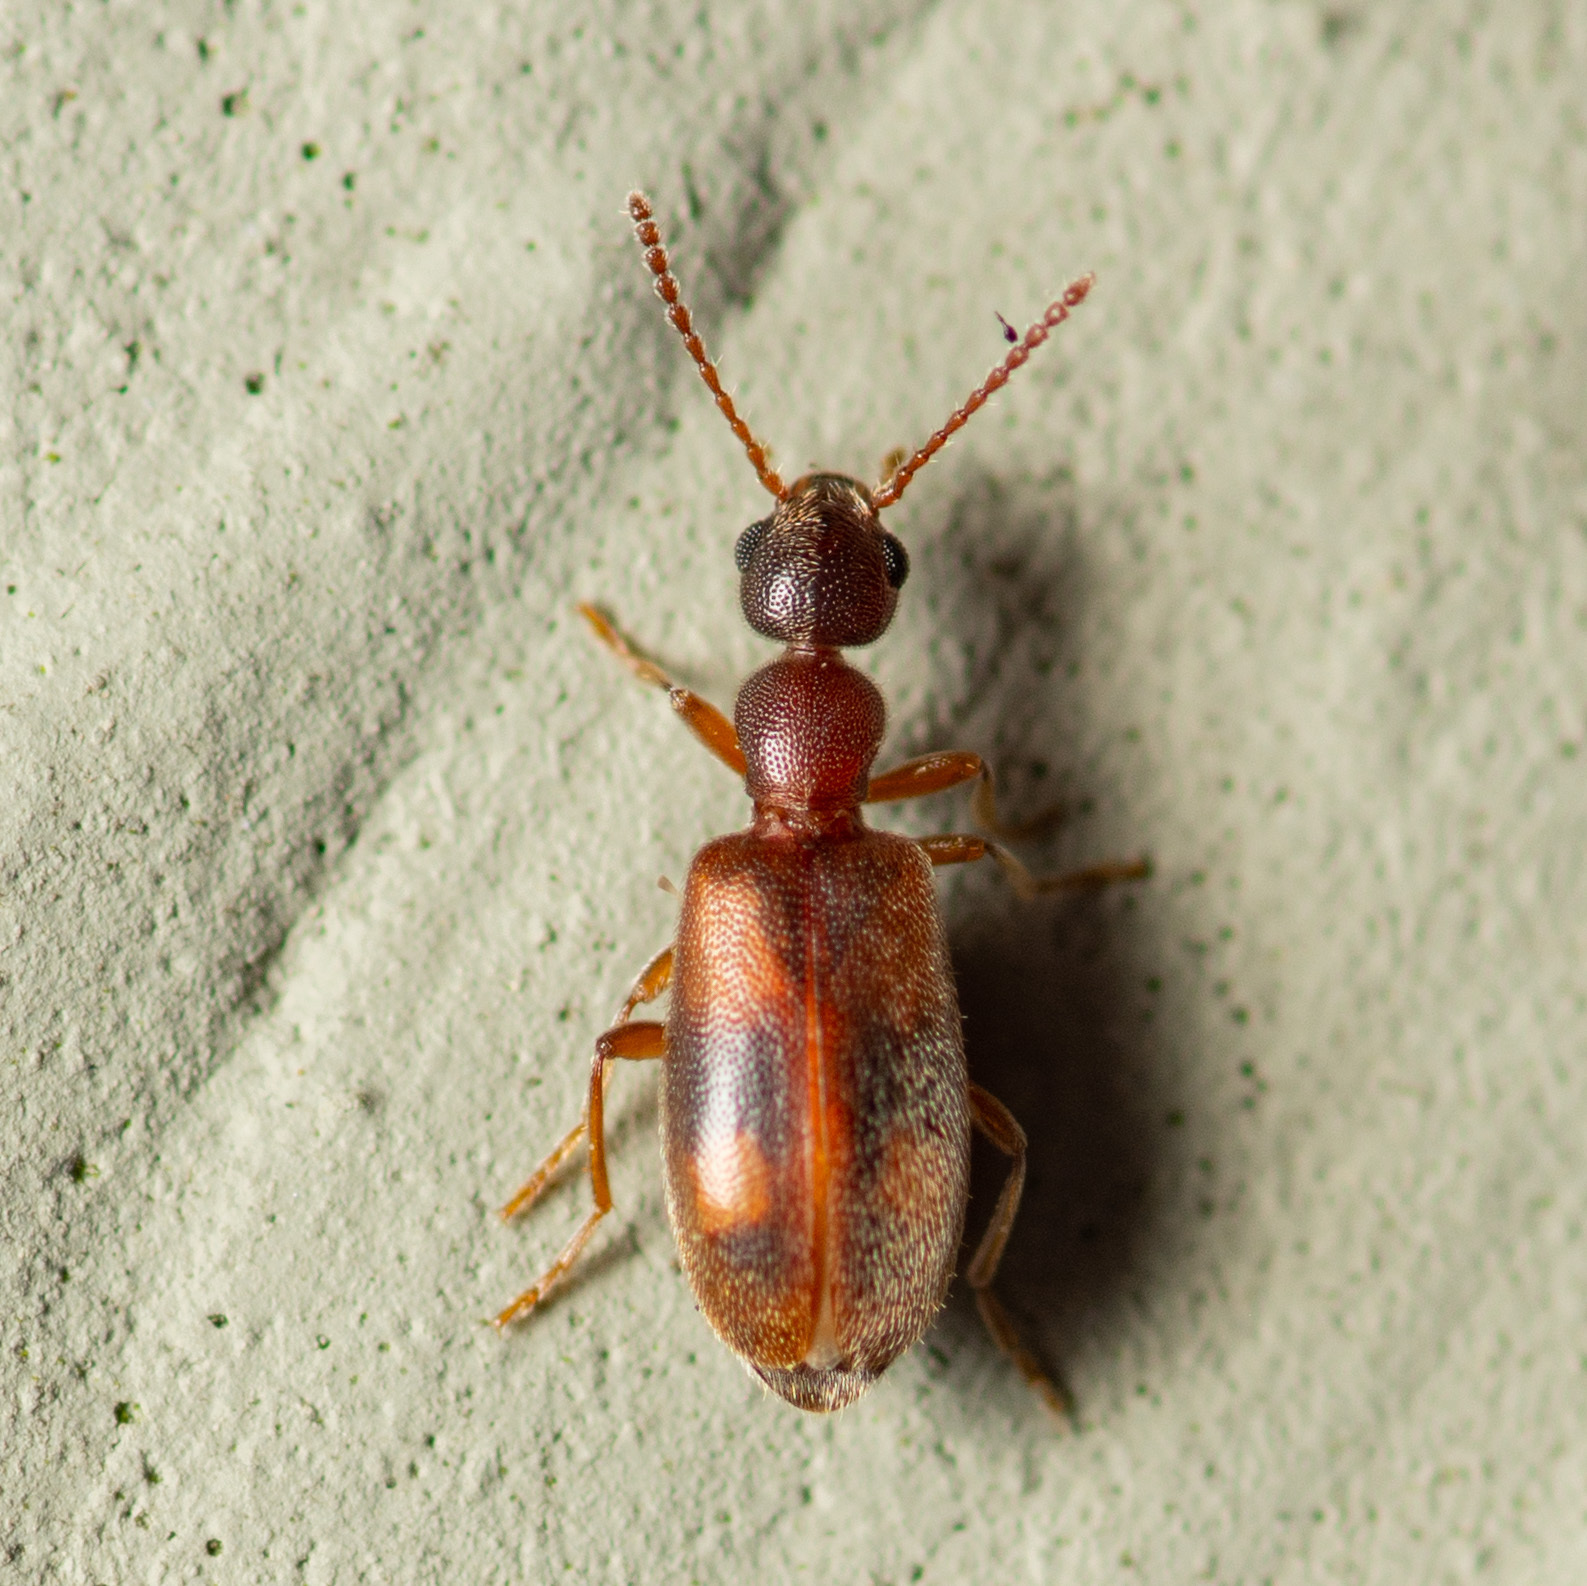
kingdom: Animalia
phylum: Arthropoda
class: Insecta
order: Coleoptera
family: Anthicidae
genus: Anthicus
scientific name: Anthicus cervinus
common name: Cloudy flower beetle
